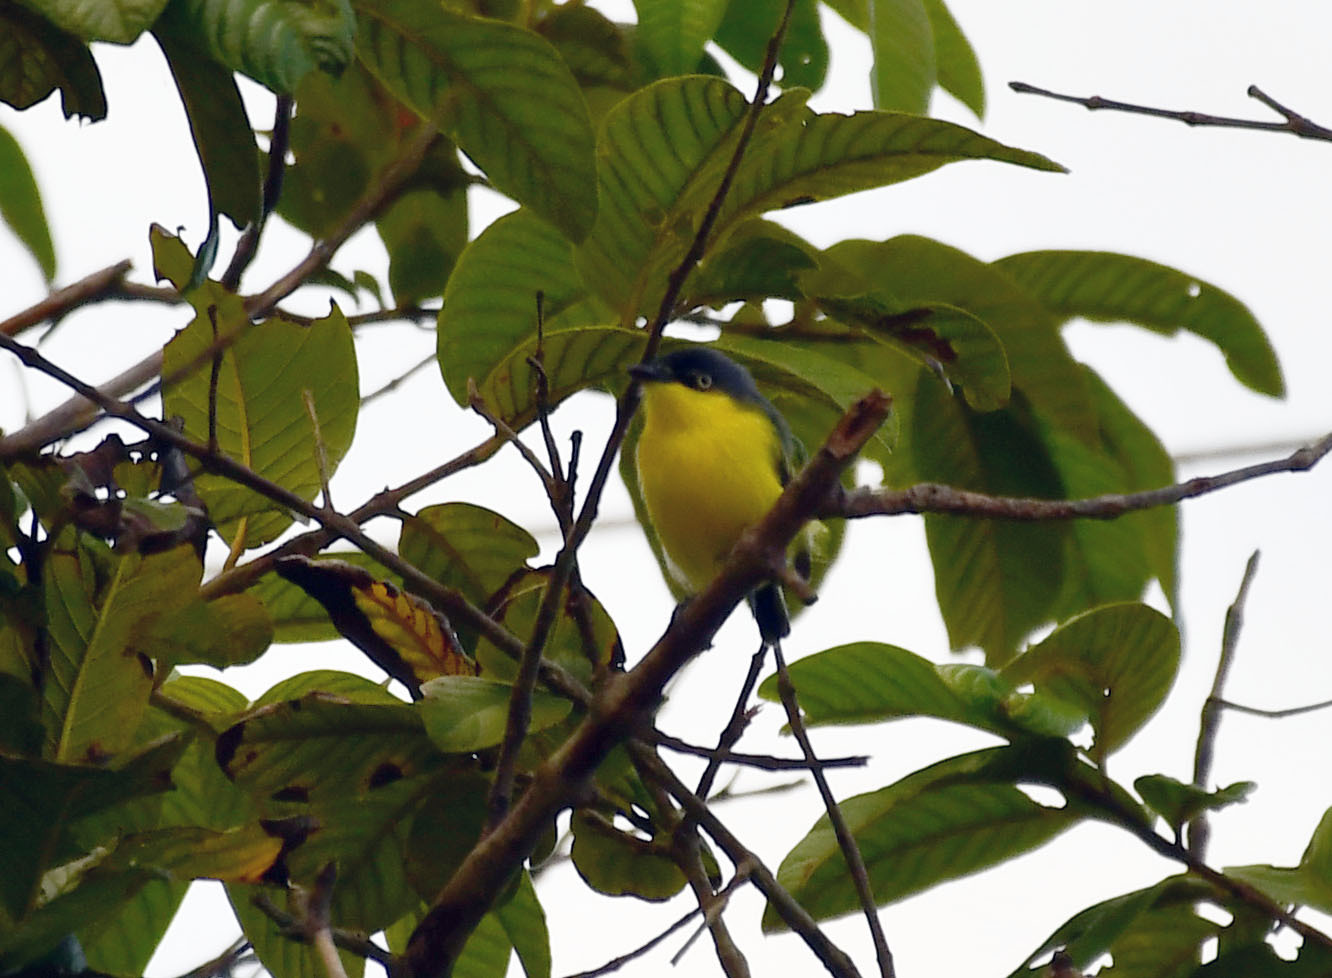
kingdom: Animalia
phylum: Chordata
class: Aves
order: Passeriformes
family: Tyrannidae
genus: Todirostrum
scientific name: Todirostrum cinereum
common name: Common tody-flycatcher
